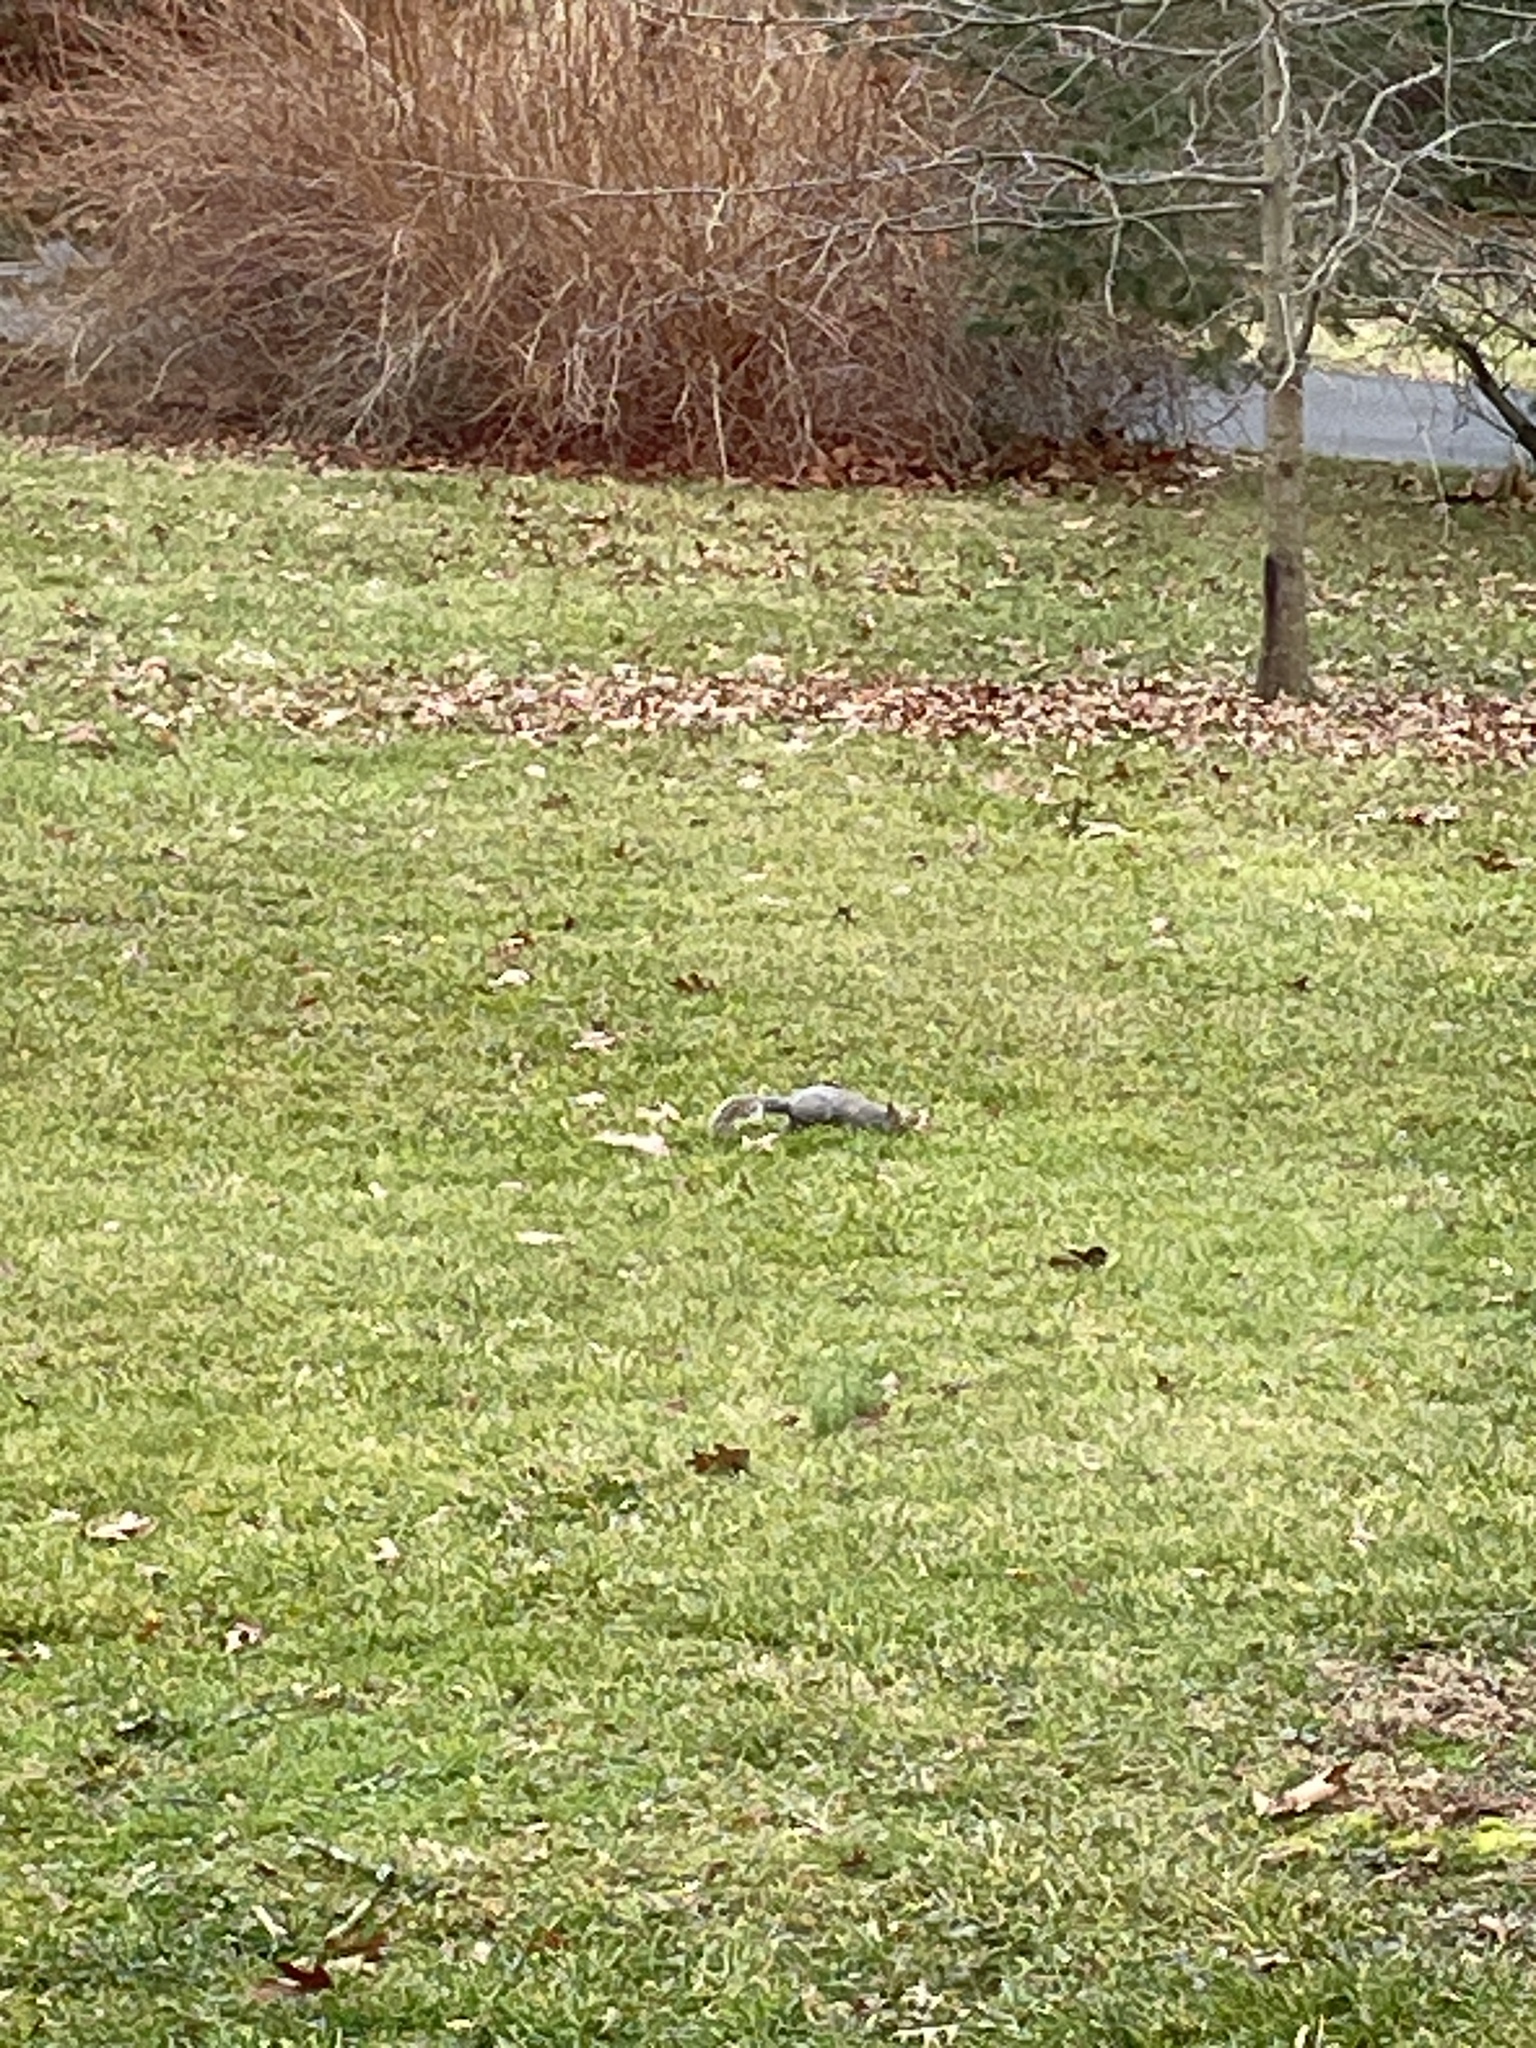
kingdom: Animalia
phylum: Chordata
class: Mammalia
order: Rodentia
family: Sciuridae
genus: Sciurus
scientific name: Sciurus carolinensis
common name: Eastern gray squirrel
